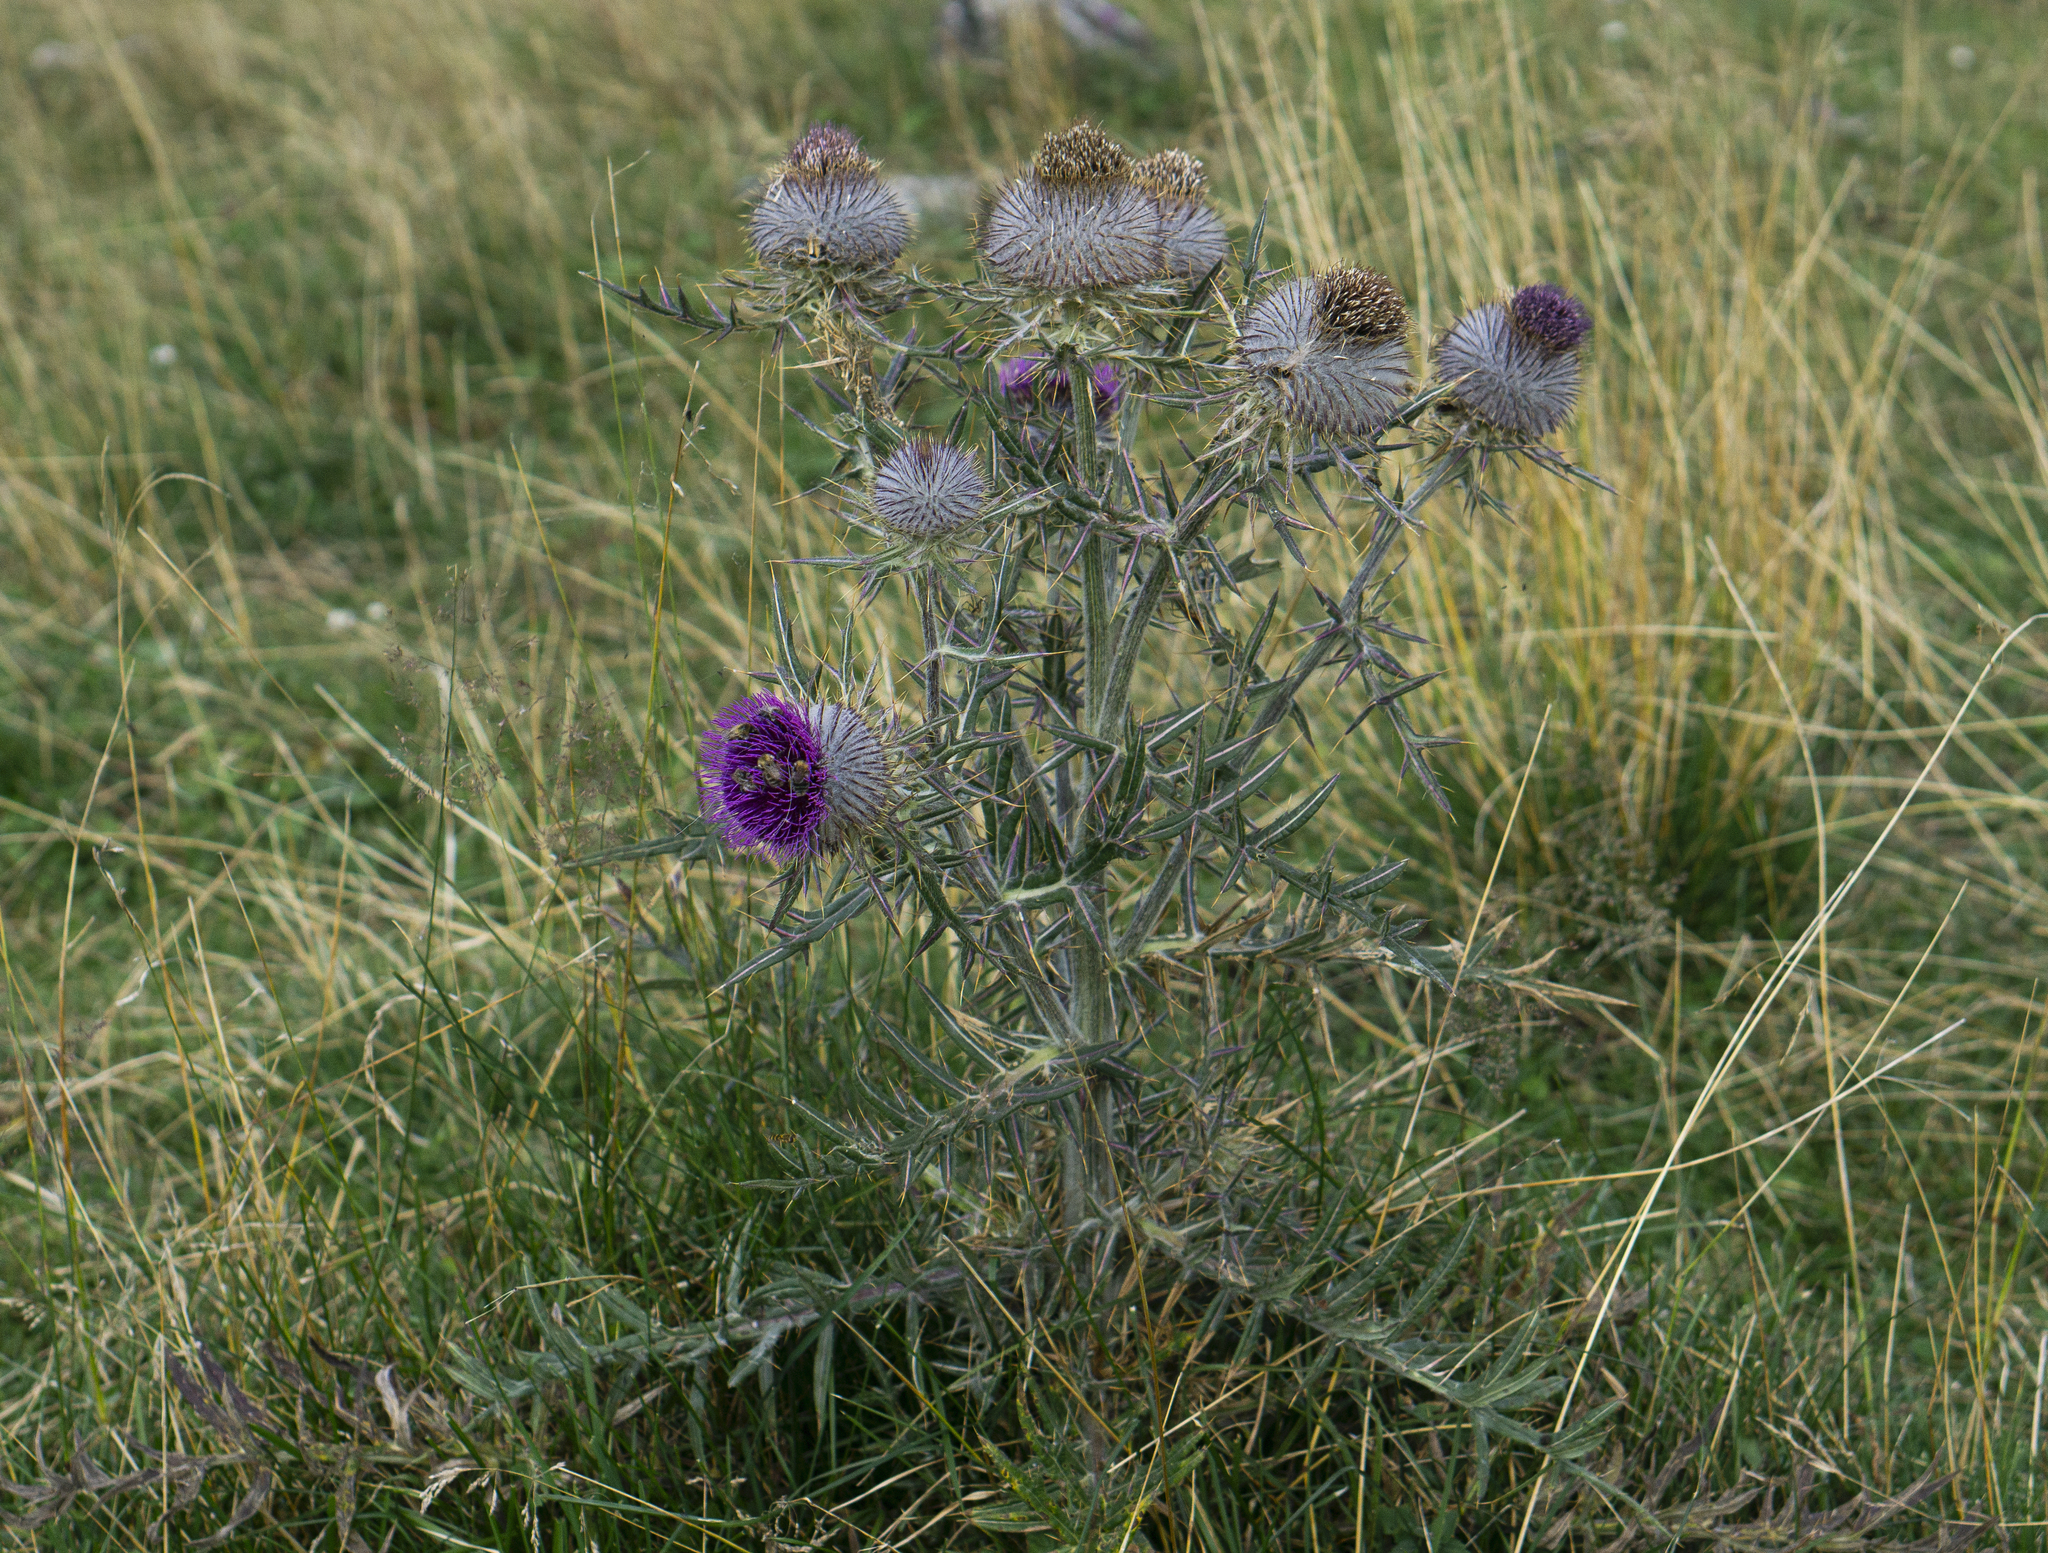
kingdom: Plantae
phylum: Tracheophyta
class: Magnoliopsida
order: Asterales
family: Asteraceae
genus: Lophiolepis
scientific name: Lophiolepis eriophora
